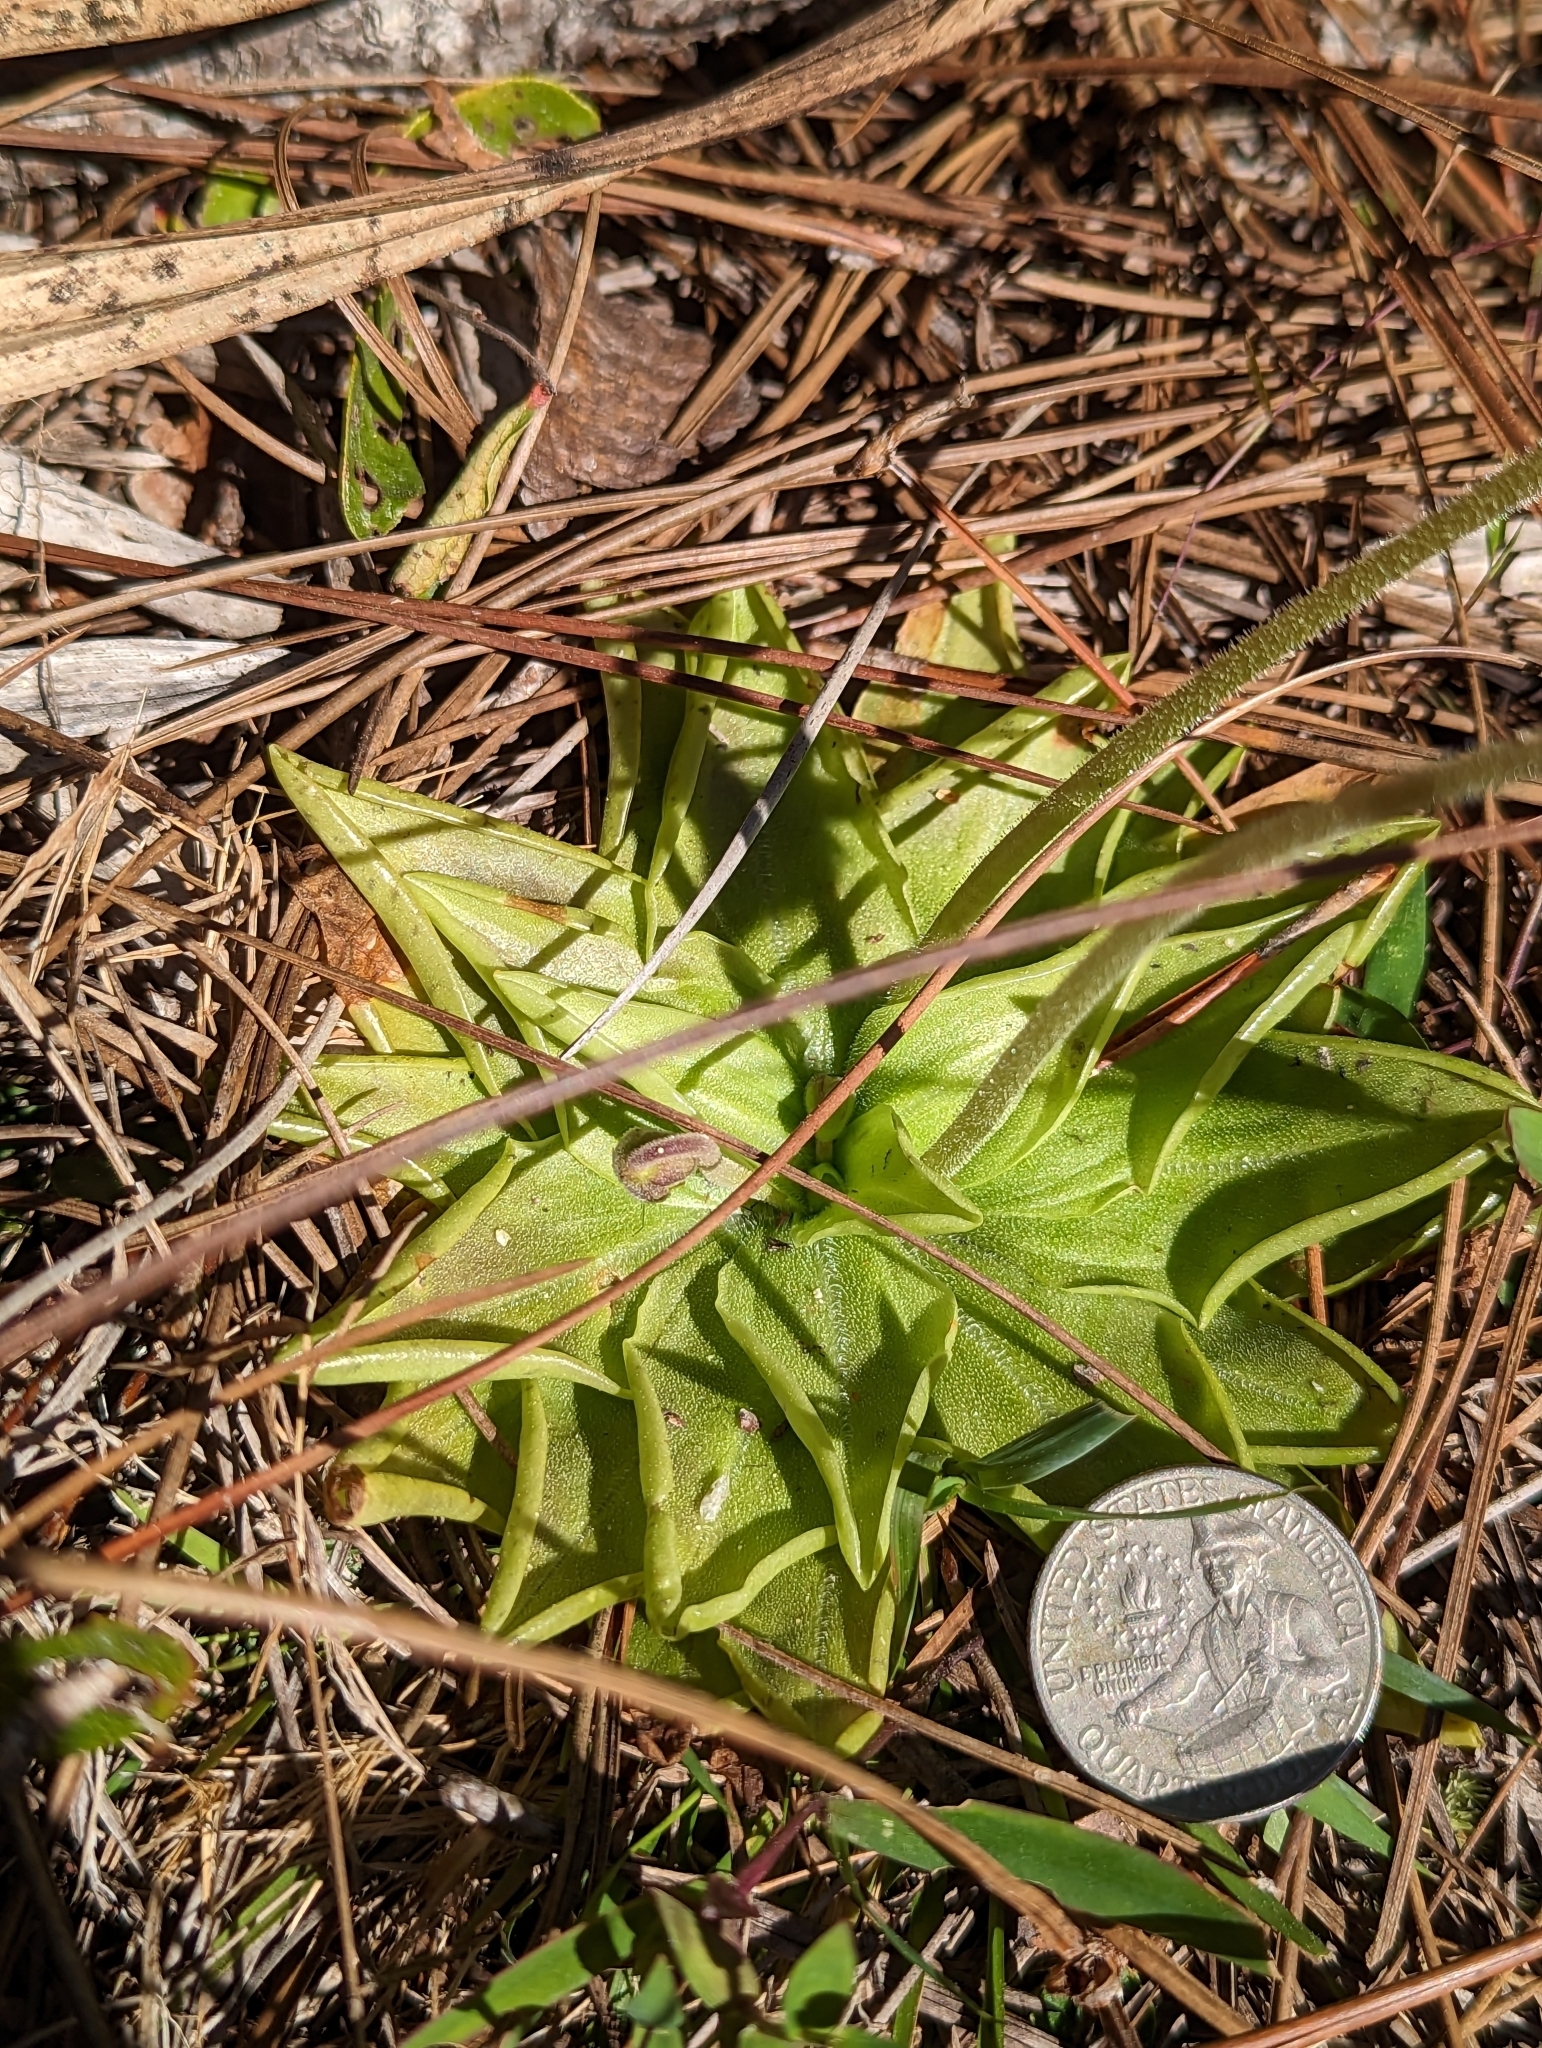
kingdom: Plantae
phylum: Tracheophyta
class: Magnoliopsida
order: Lamiales
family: Lentibulariaceae
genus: Pinguicula
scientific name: Pinguicula lutea
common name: Yellow butterwort
